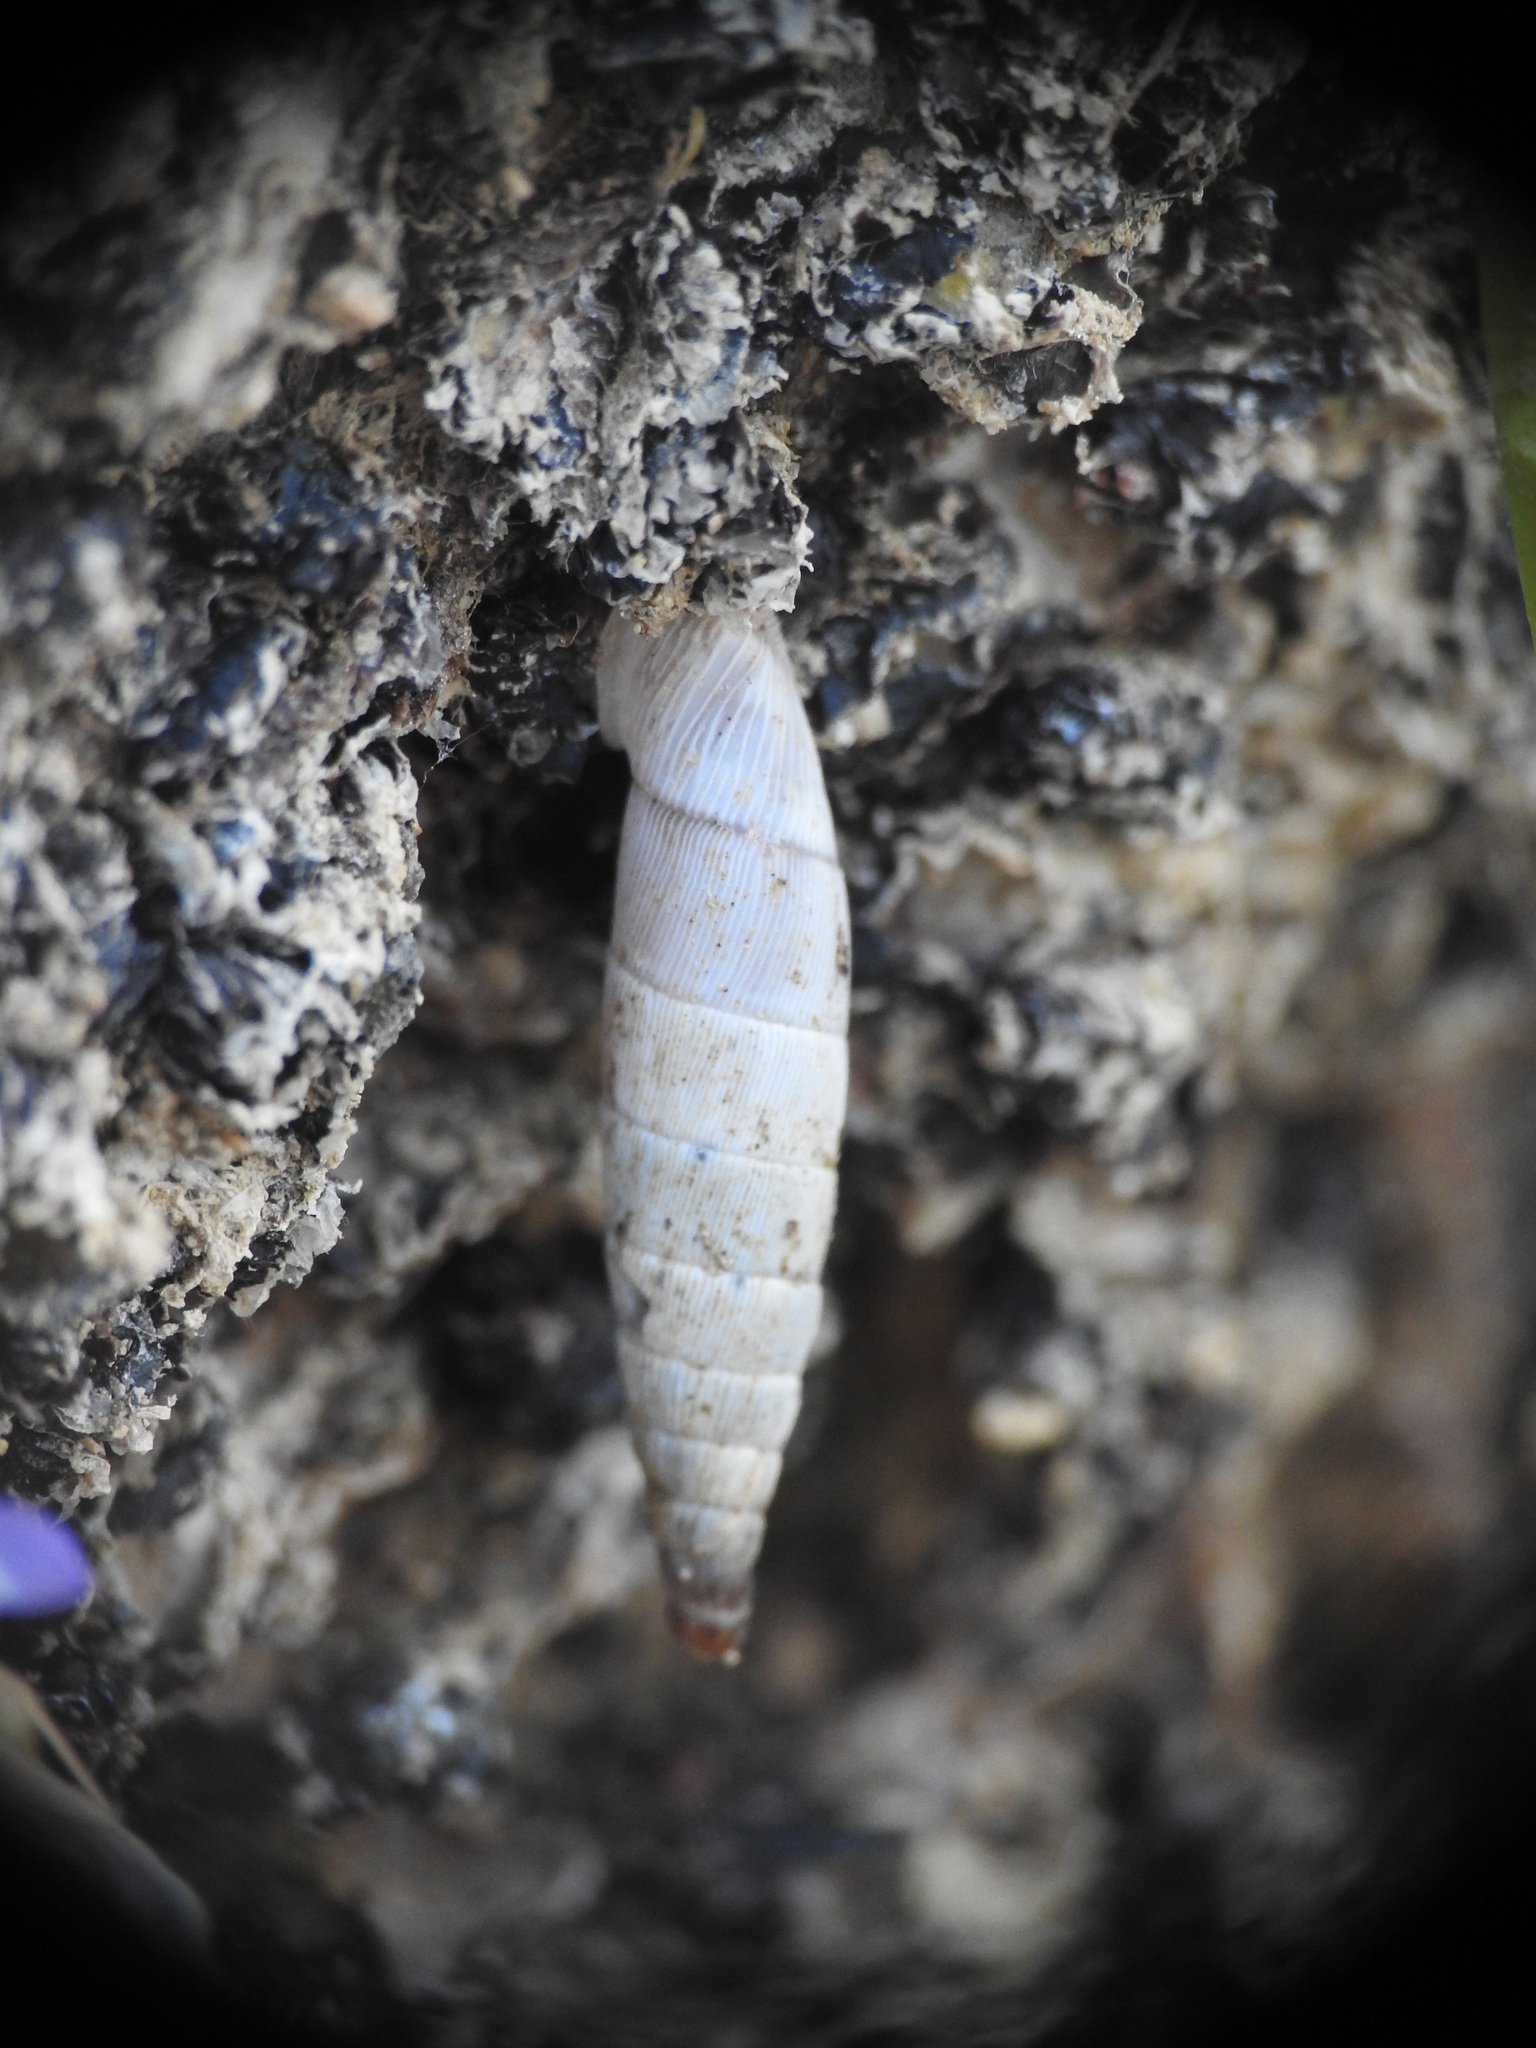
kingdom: Animalia
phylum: Mollusca
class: Gastropoda
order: Stylommatophora
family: Clausiliidae
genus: Albinaria
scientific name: Albinaria cretensis
